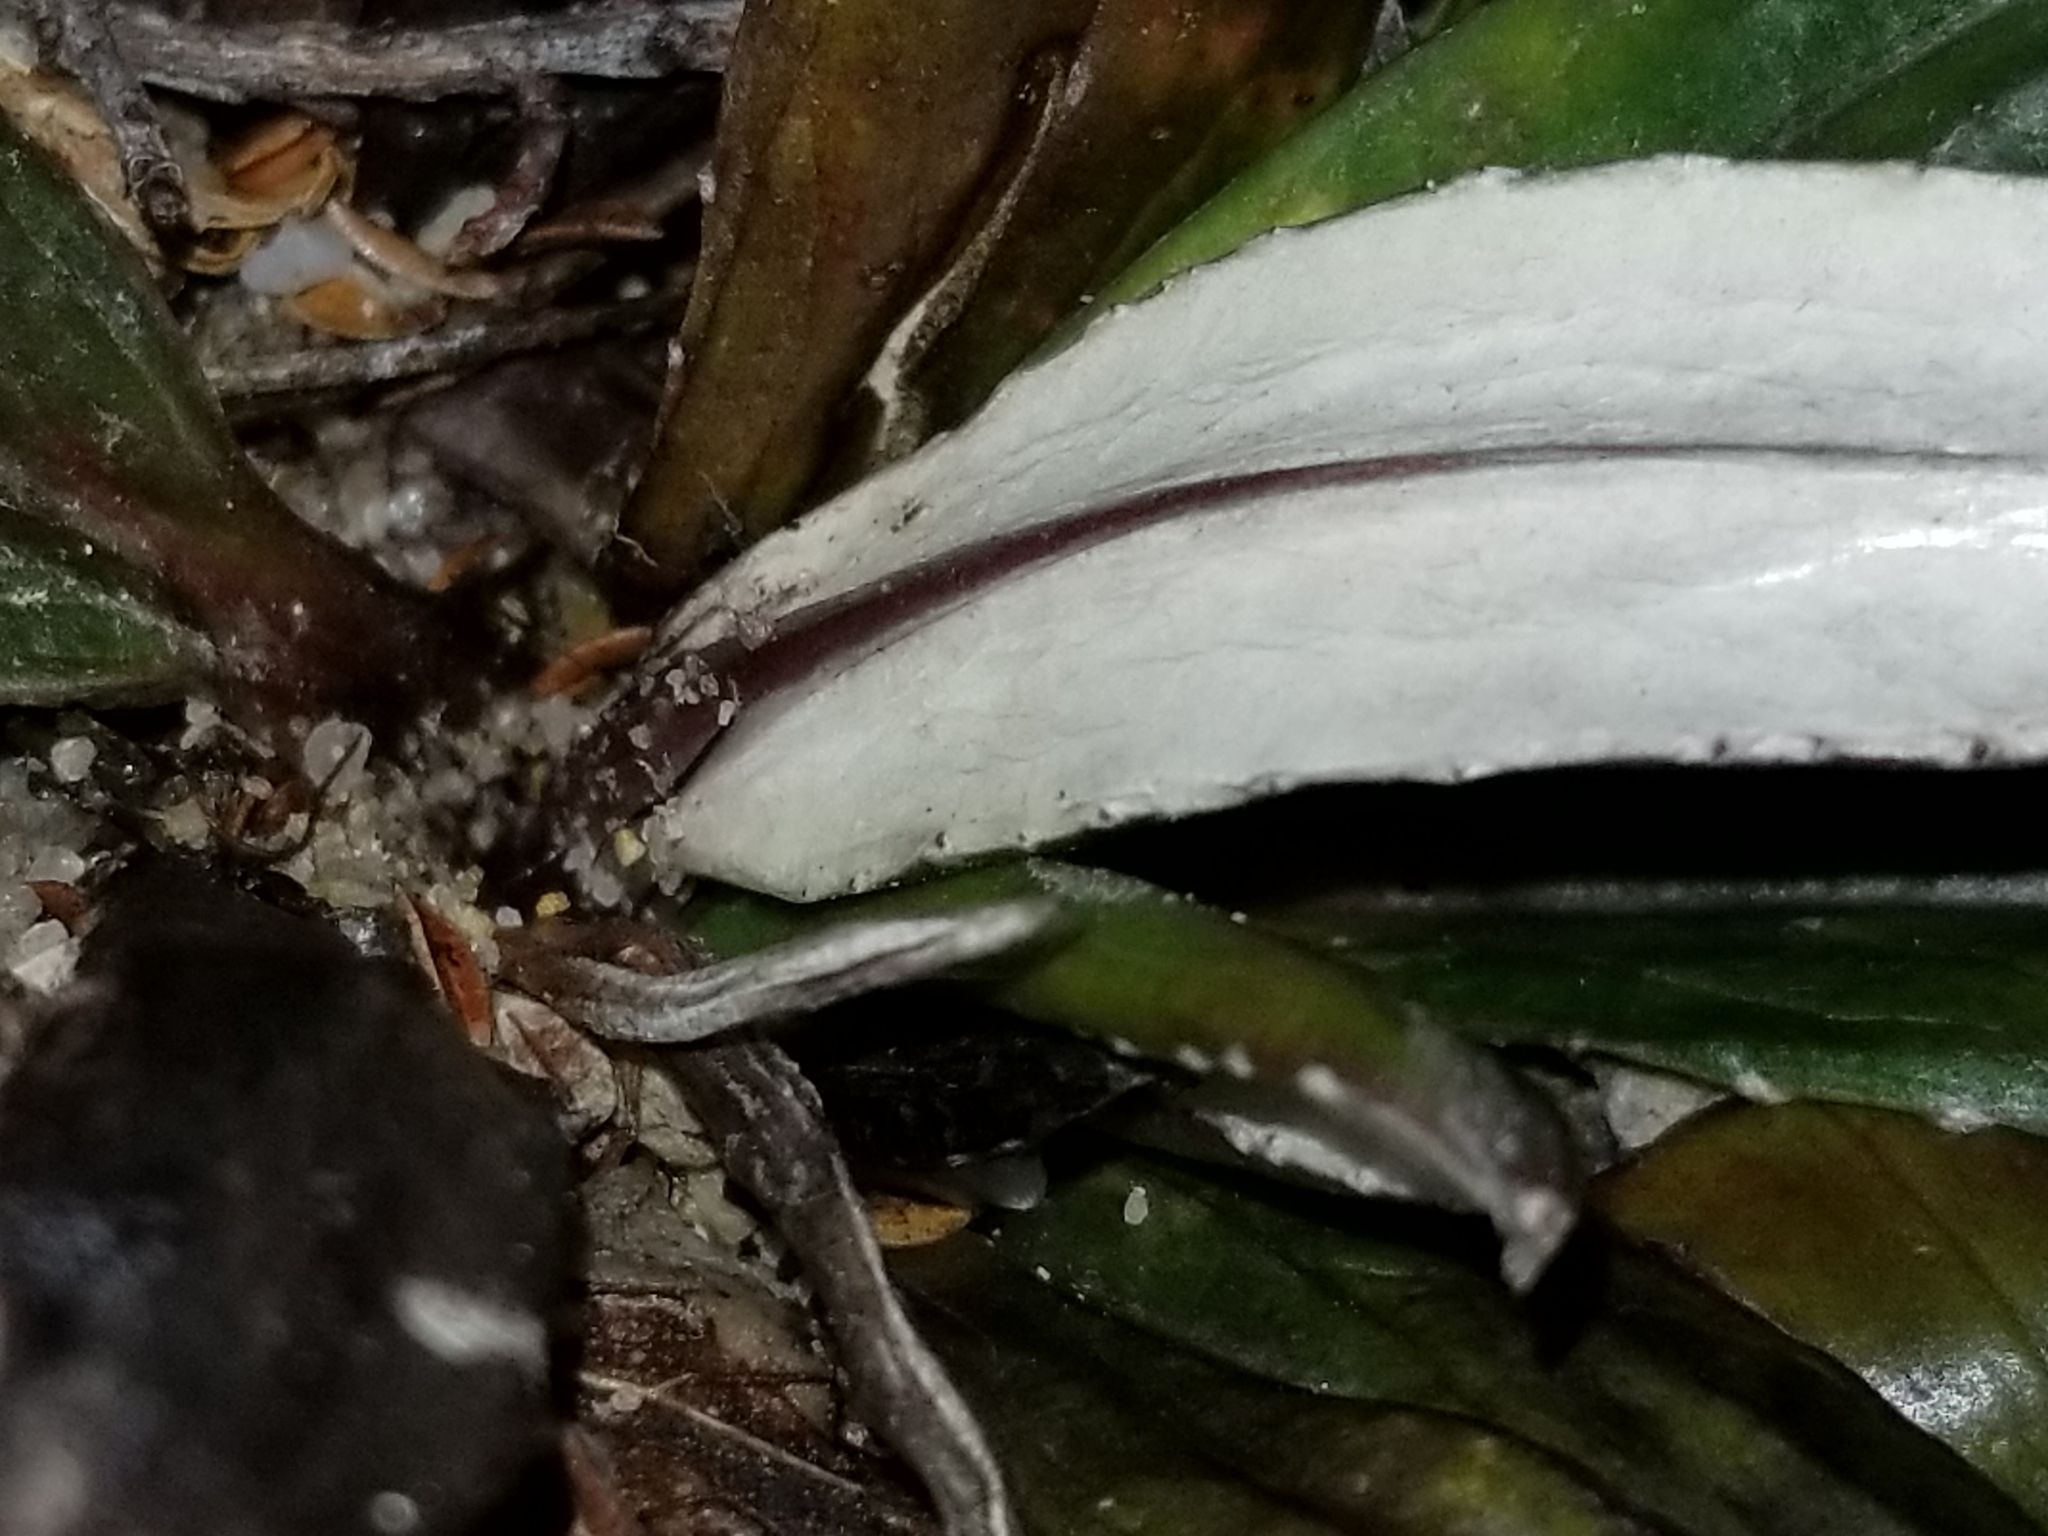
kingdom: Plantae
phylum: Tracheophyta
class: Magnoliopsida
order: Asterales
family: Asteraceae
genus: Celmisia
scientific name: Celmisia dubia
